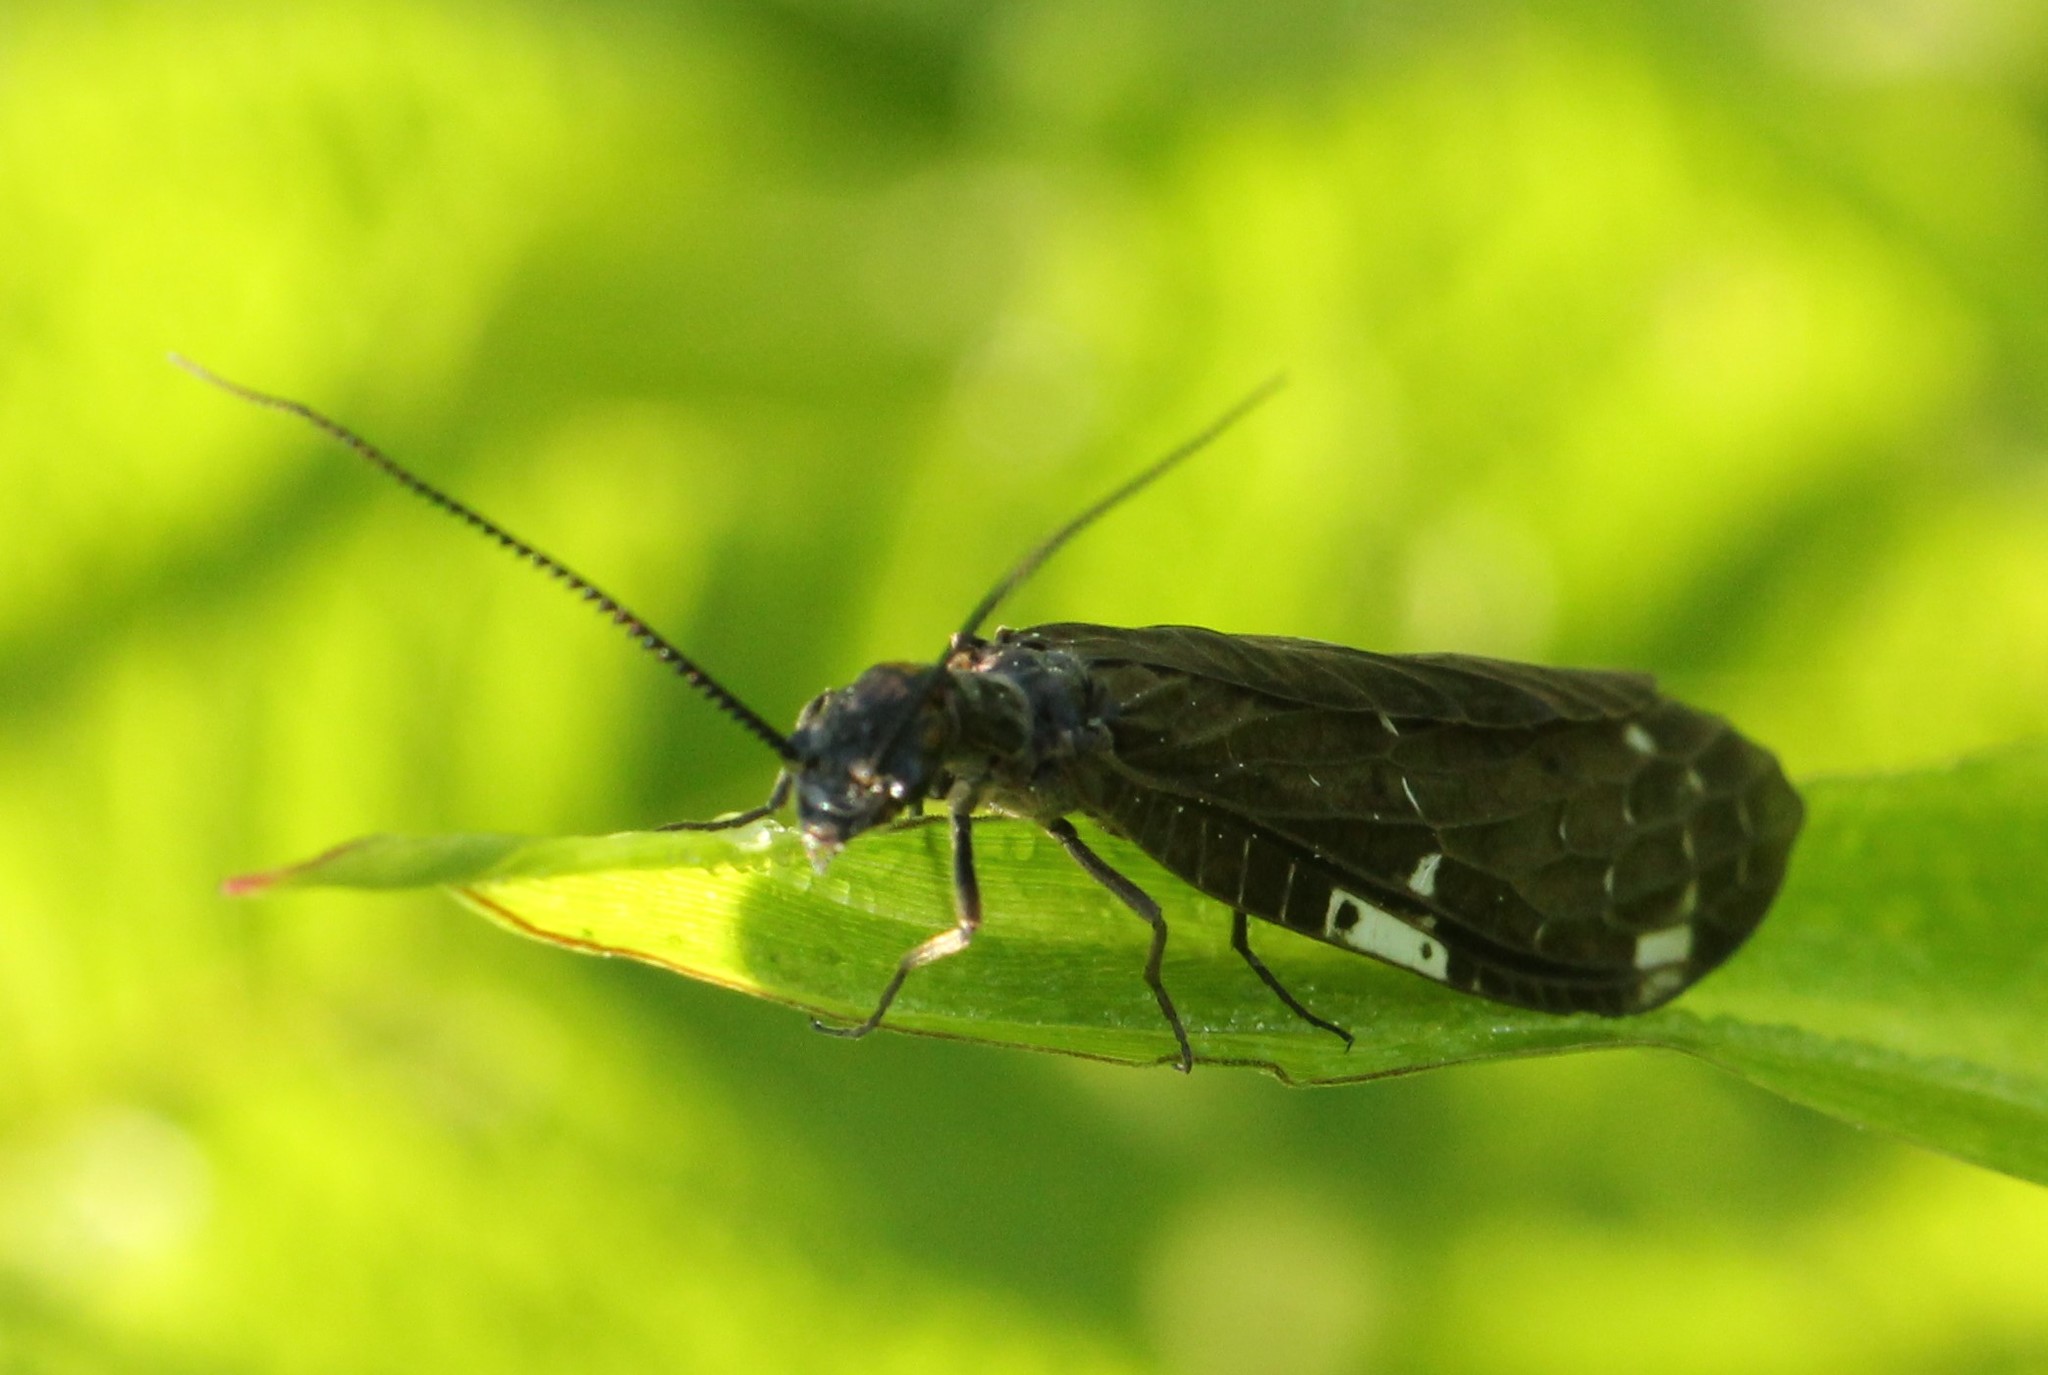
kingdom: Animalia
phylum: Arthropoda
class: Insecta
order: Megaloptera
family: Corydalidae
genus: Nigronia
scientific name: Nigronia serricornis
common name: Serrate dark fishfly
